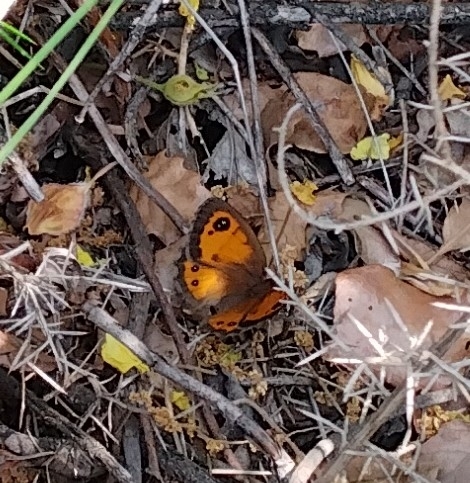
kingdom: Animalia
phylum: Arthropoda
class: Insecta
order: Lepidoptera
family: Nymphalidae
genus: Pyronia
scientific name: Pyronia bathseba
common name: Spanish gatekeeper
